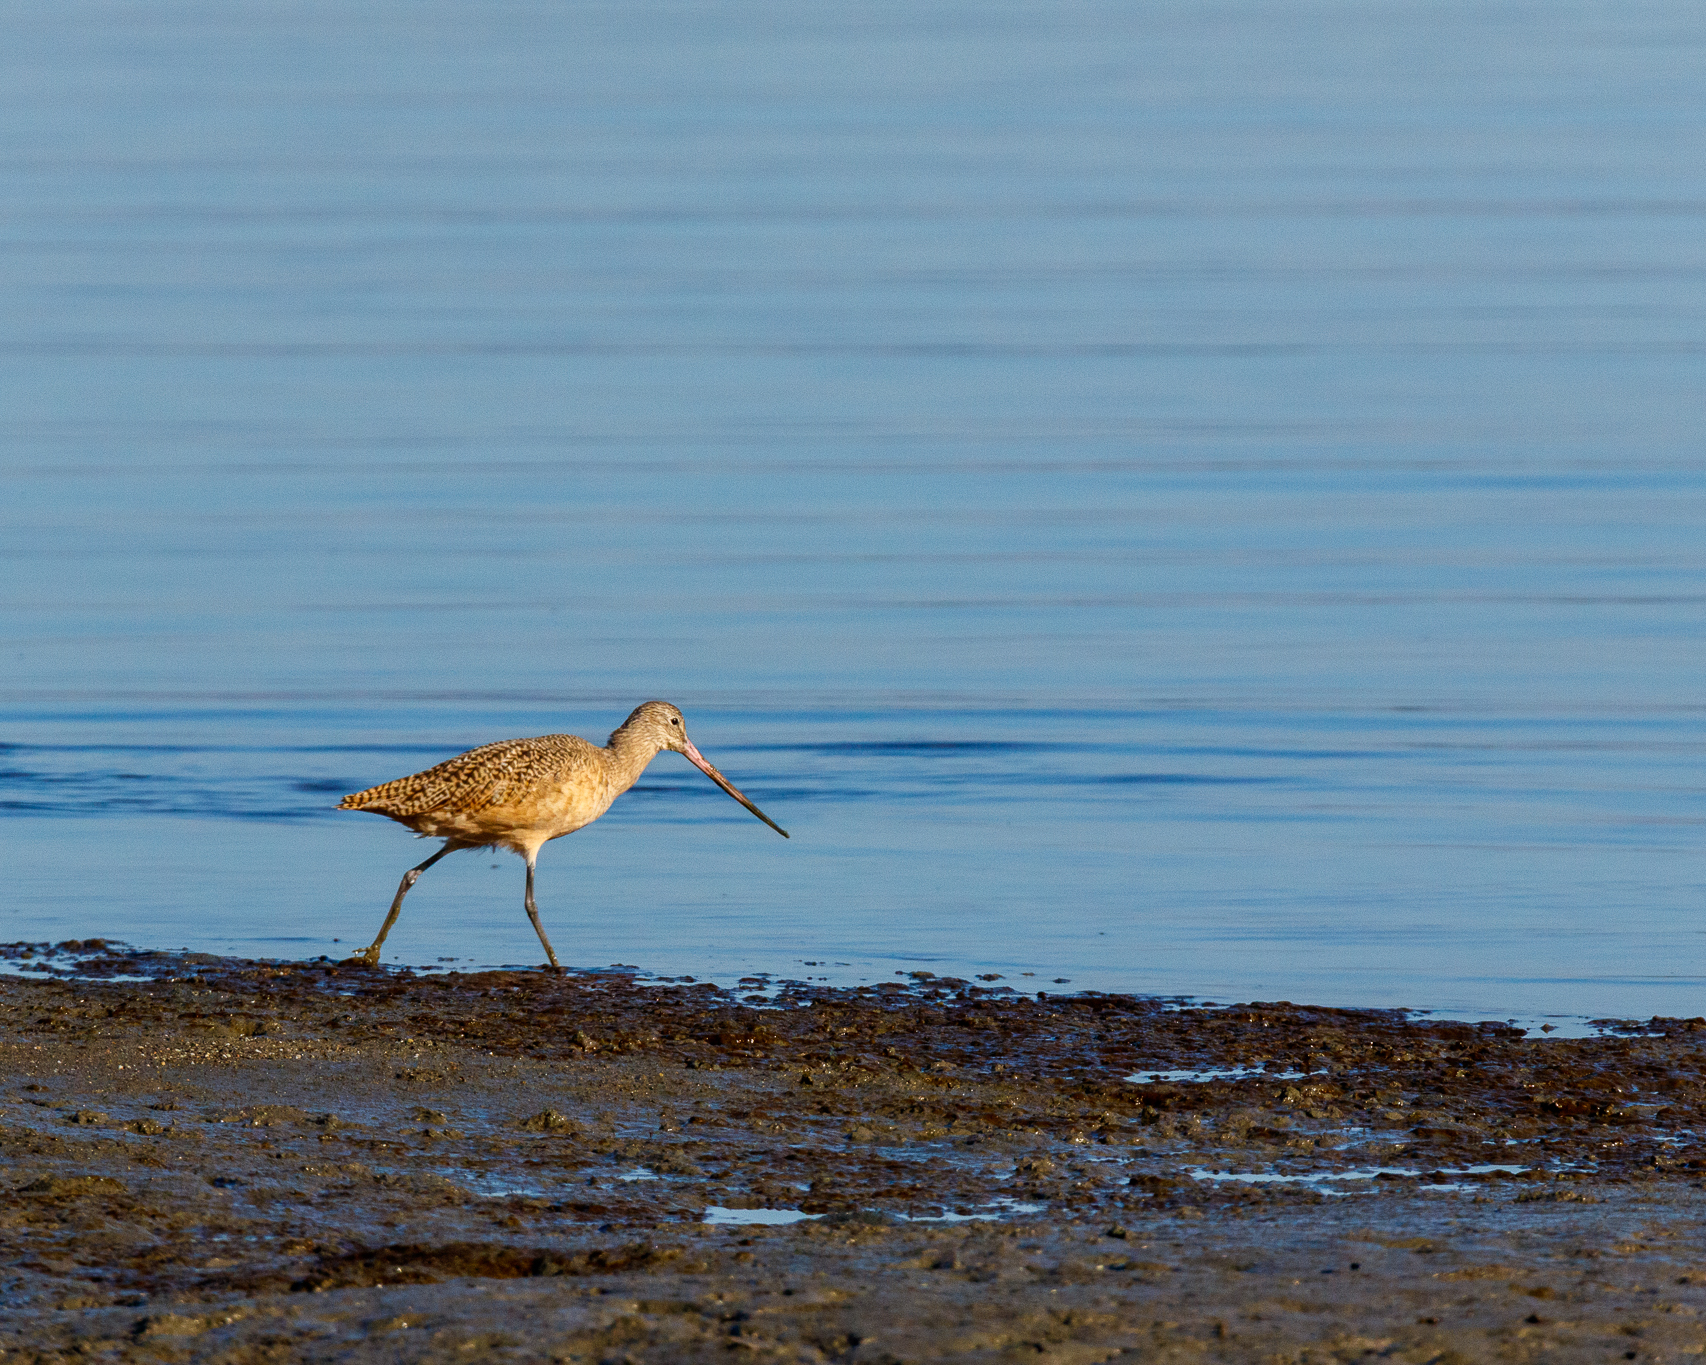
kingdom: Animalia
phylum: Chordata
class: Aves
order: Charadriiformes
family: Scolopacidae
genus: Limosa
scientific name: Limosa fedoa
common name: Marbled godwit
